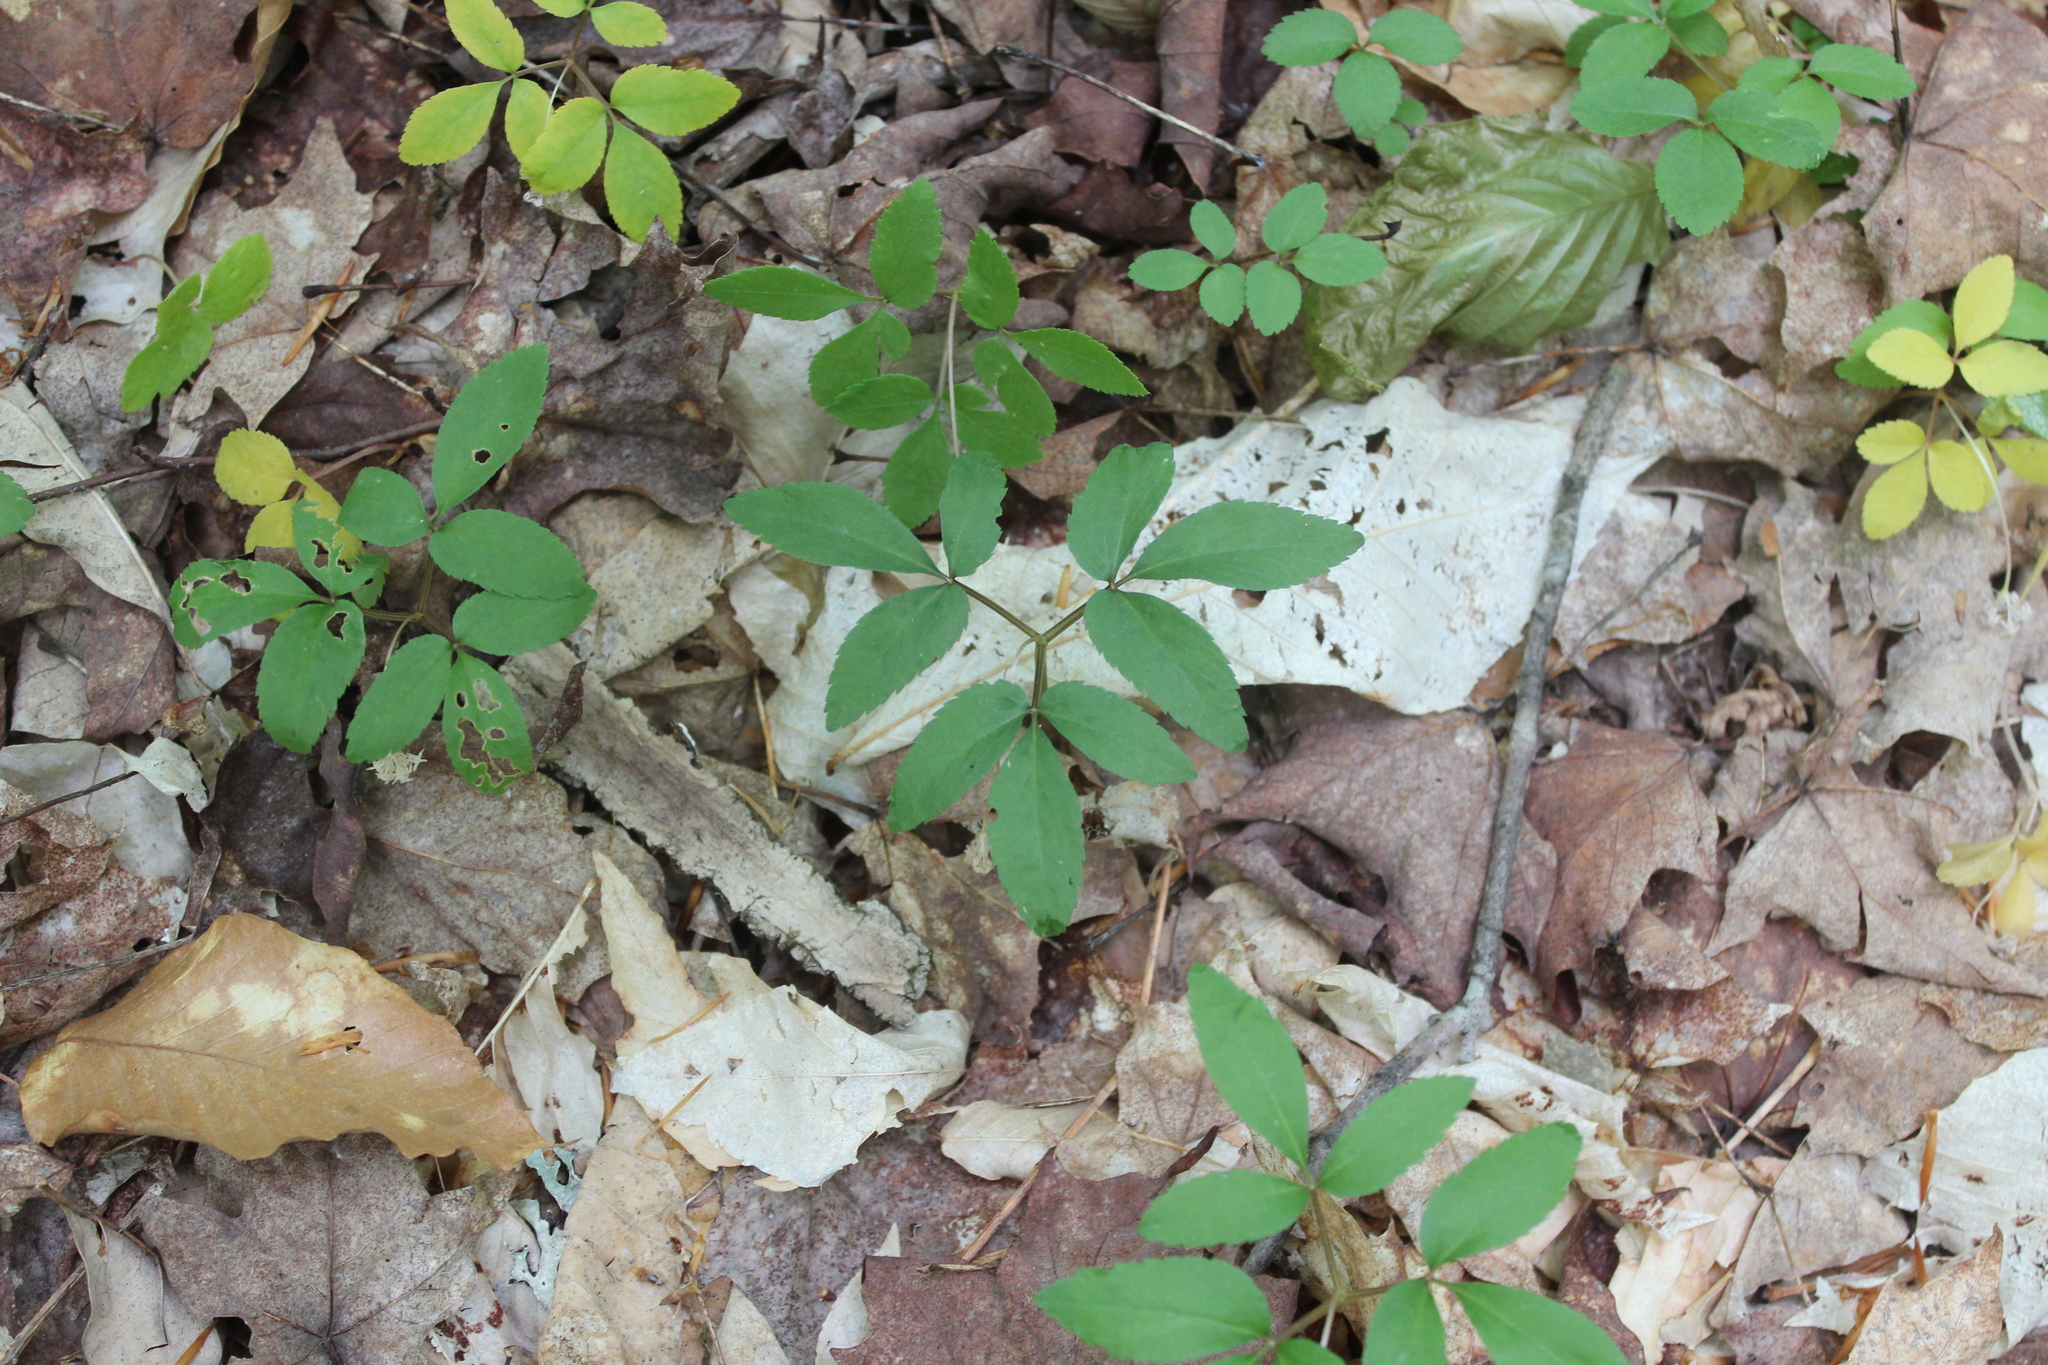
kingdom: Plantae
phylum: Tracheophyta
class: Magnoliopsida
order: Apiales
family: Araliaceae
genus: Panax
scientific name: Panax trifolius
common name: Dwarf ginseng
